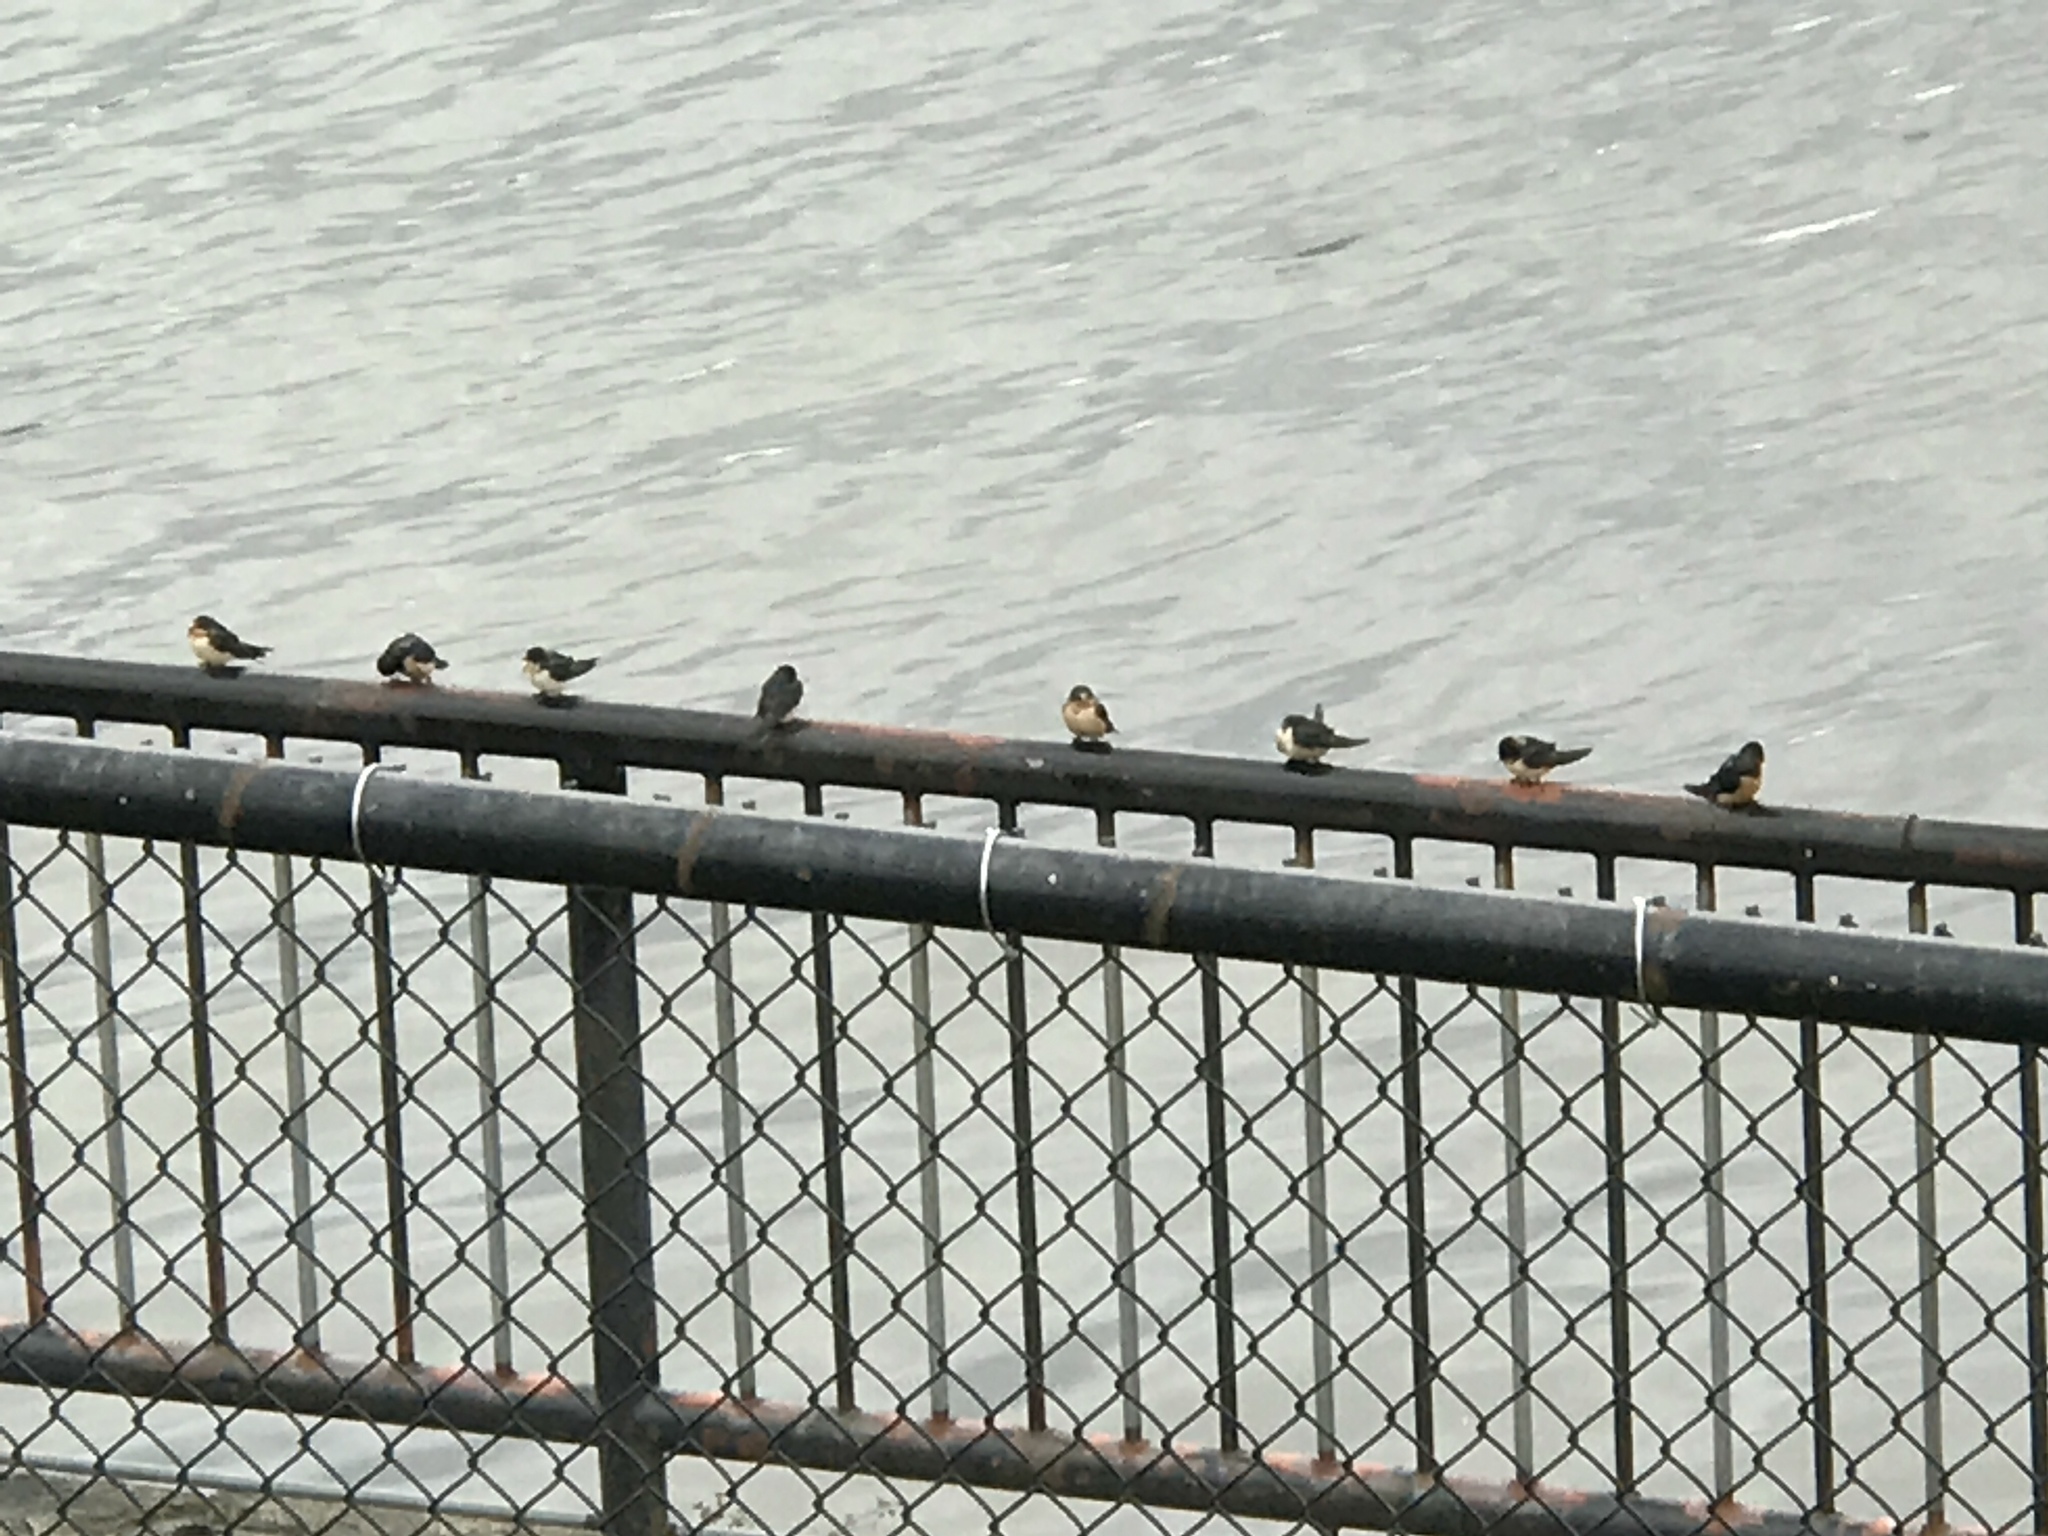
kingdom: Animalia
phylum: Chordata
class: Aves
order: Passeriformes
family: Hirundinidae
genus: Hirundo
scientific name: Hirundo rustica
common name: Barn swallow
